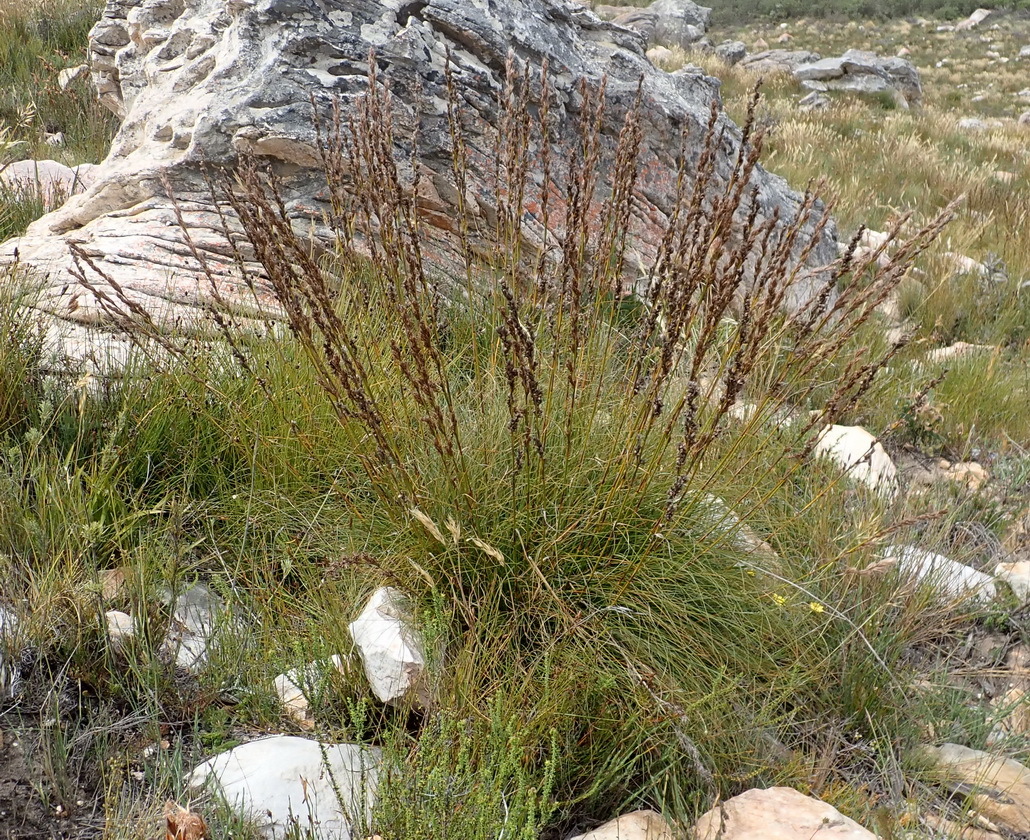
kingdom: Plantae
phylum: Tracheophyta
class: Liliopsida
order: Poales
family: Cyperaceae
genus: Tetraria
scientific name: Tetraria bromoides
